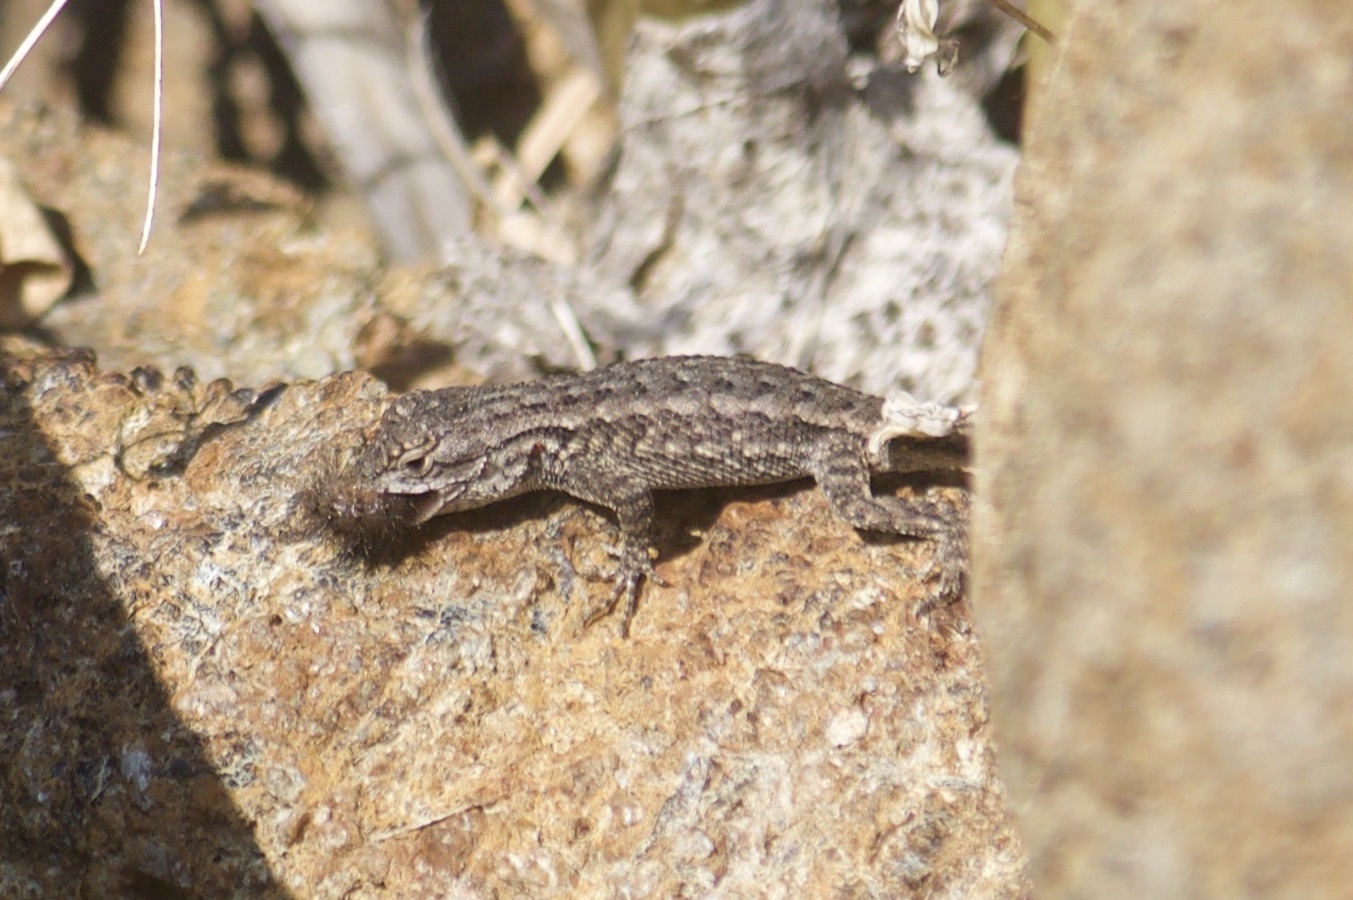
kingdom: Animalia
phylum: Chordata
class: Squamata
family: Phrynosomatidae
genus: Sceloporus
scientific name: Sceloporus occidentalis
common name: Western fence lizard
